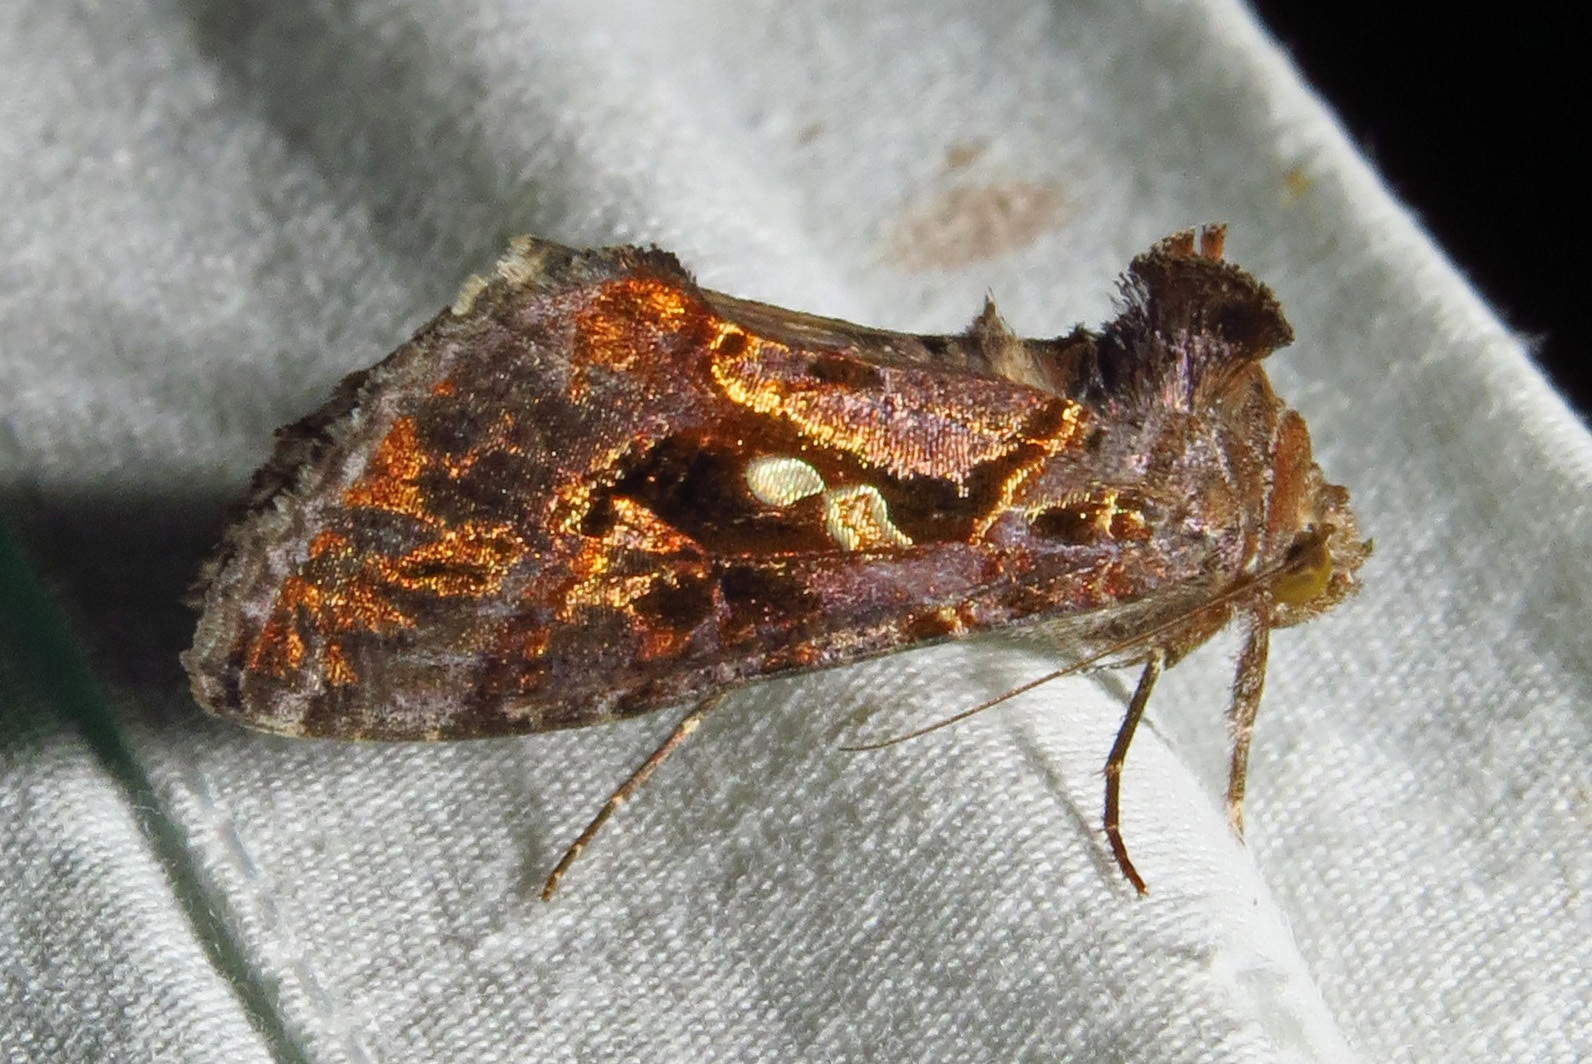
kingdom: Animalia
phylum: Arthropoda
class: Insecta
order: Lepidoptera
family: Noctuidae
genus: Chrysodeixis
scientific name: Chrysodeixis includens
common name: Cutworm moth
